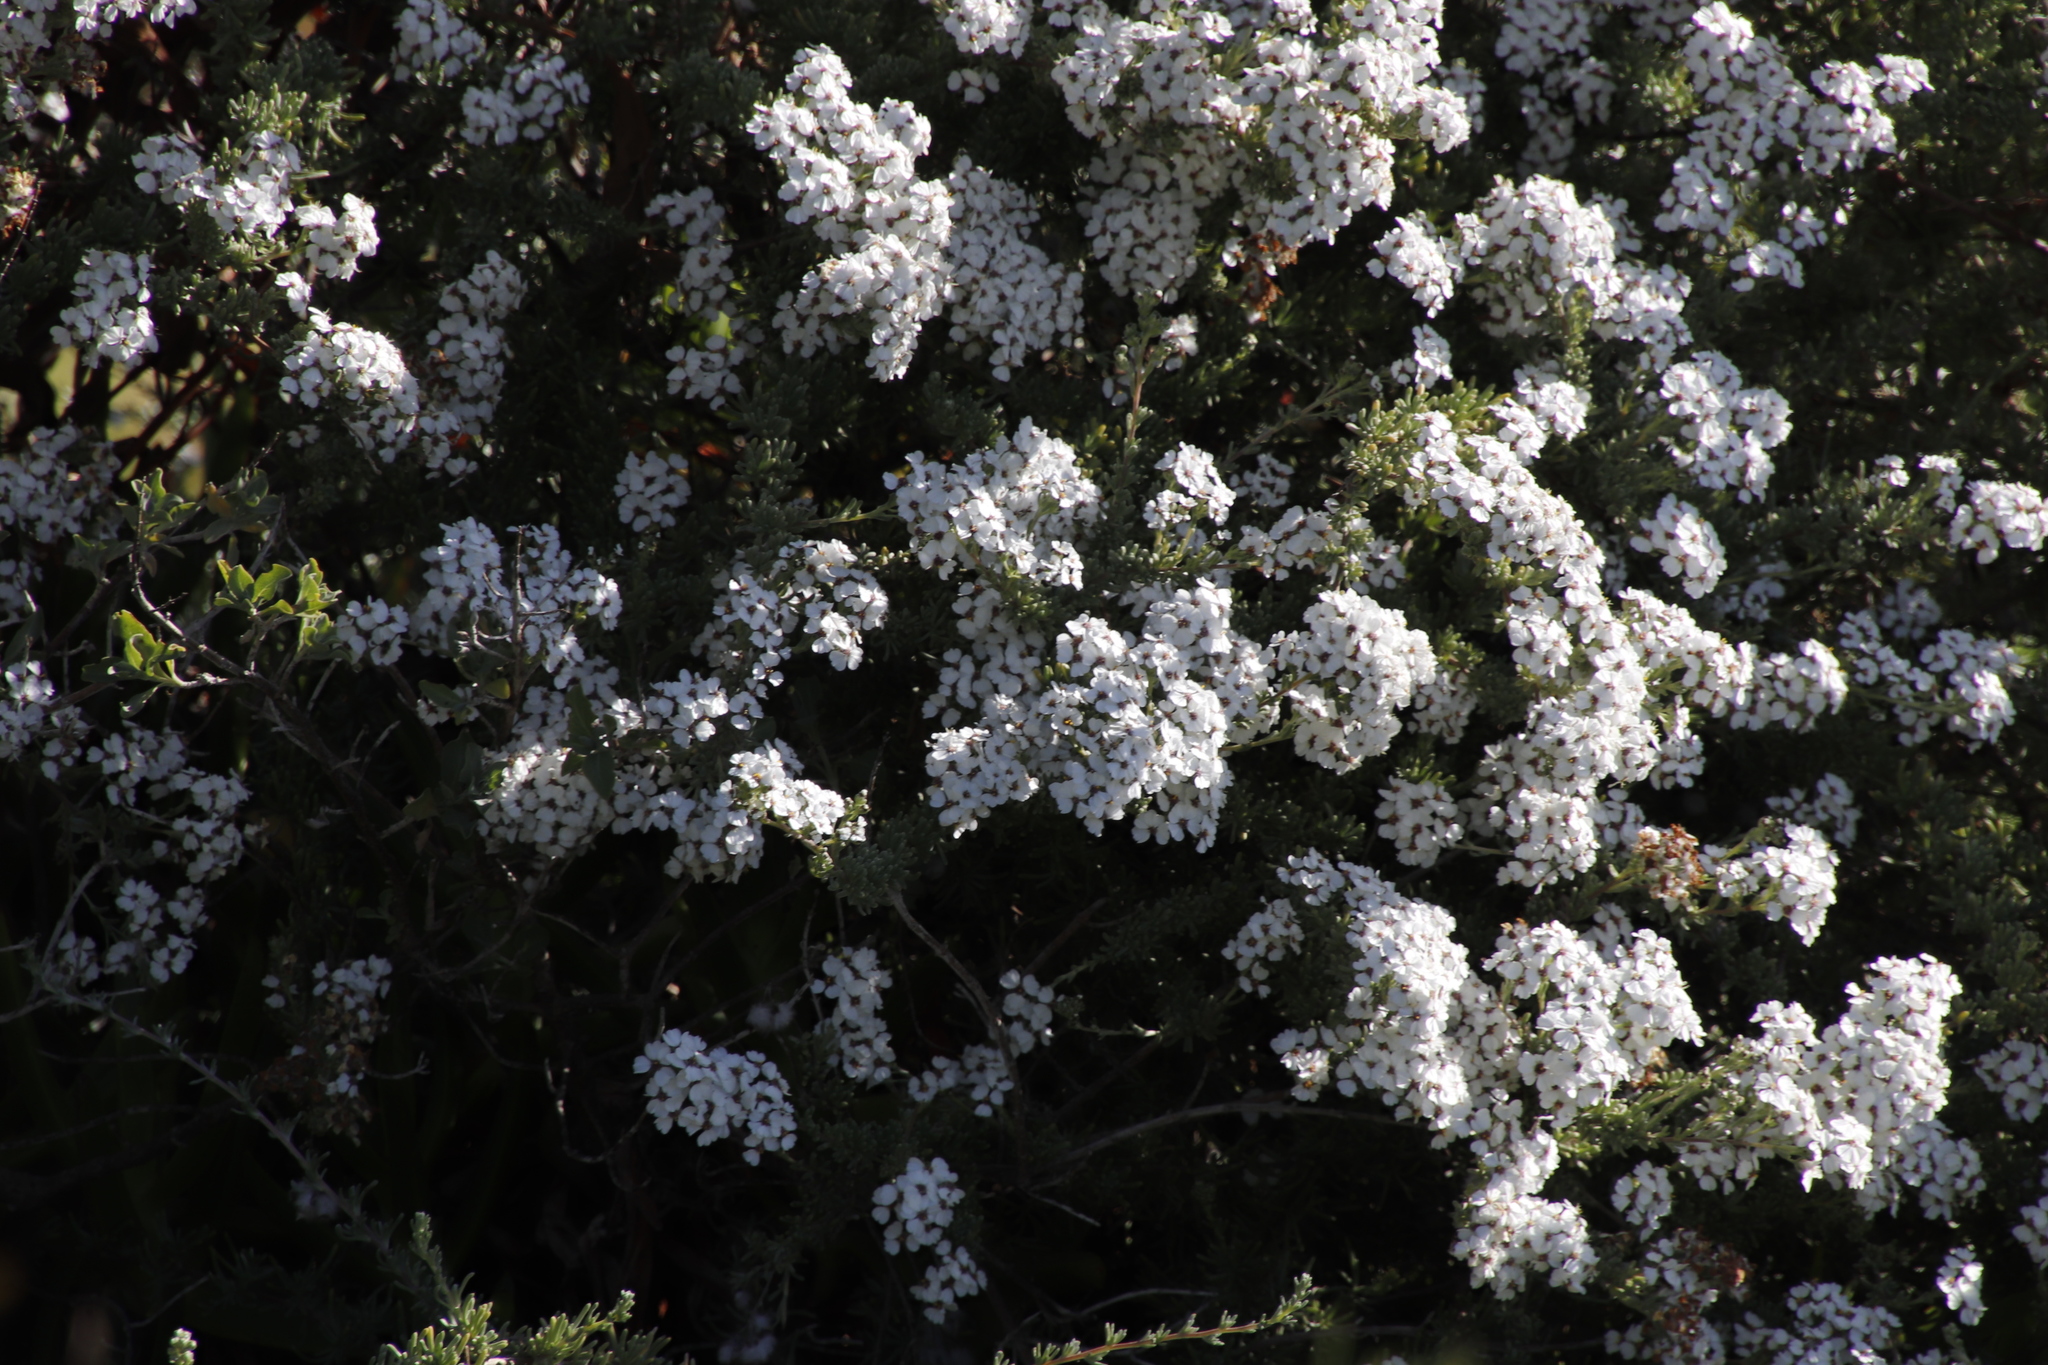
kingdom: Plantae
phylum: Tracheophyta
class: Magnoliopsida
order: Asterales
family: Asteraceae
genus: Eriocephalus
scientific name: Eriocephalus africanus
